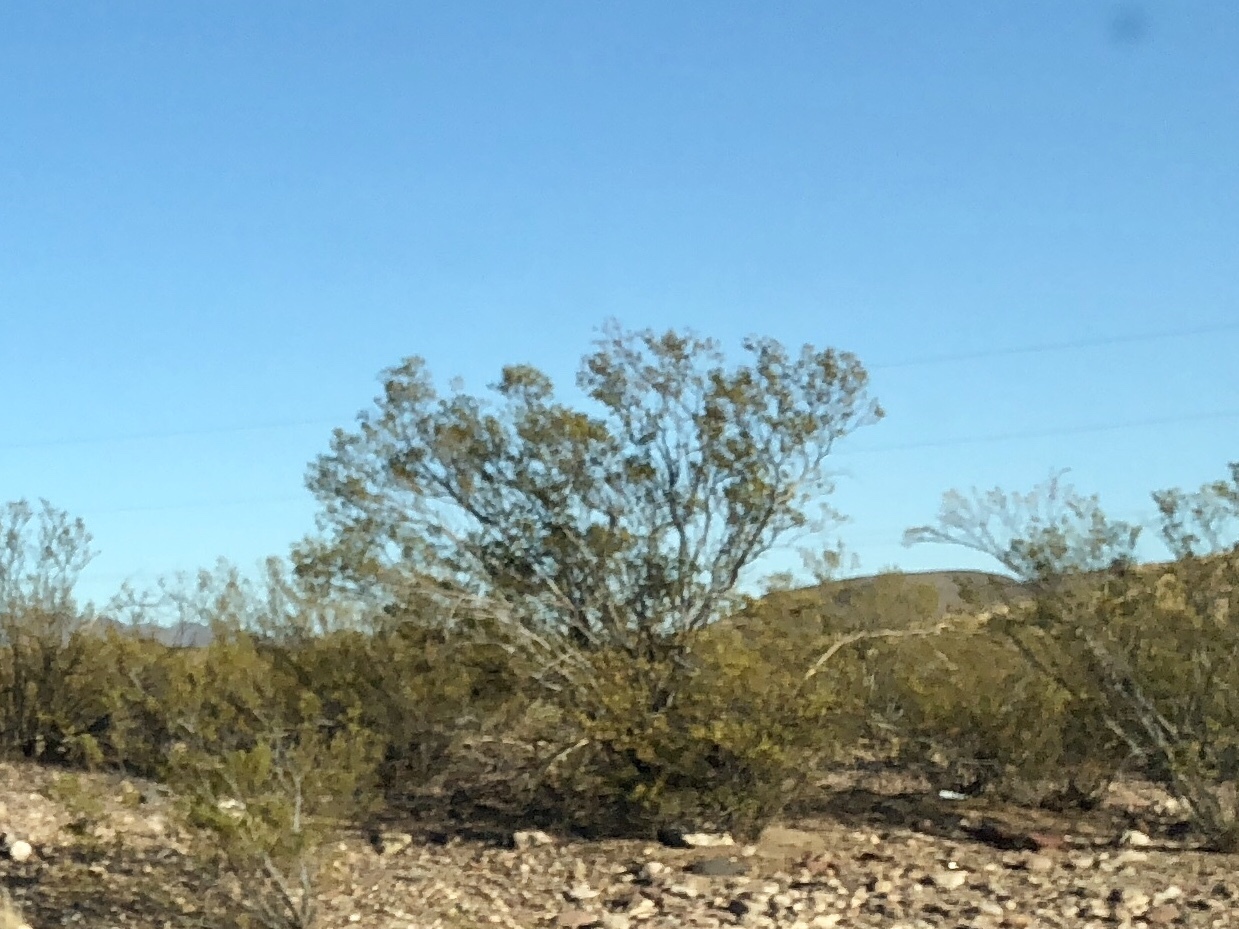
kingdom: Plantae
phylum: Tracheophyta
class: Magnoliopsida
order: Zygophyllales
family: Zygophyllaceae
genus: Larrea
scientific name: Larrea tridentata
